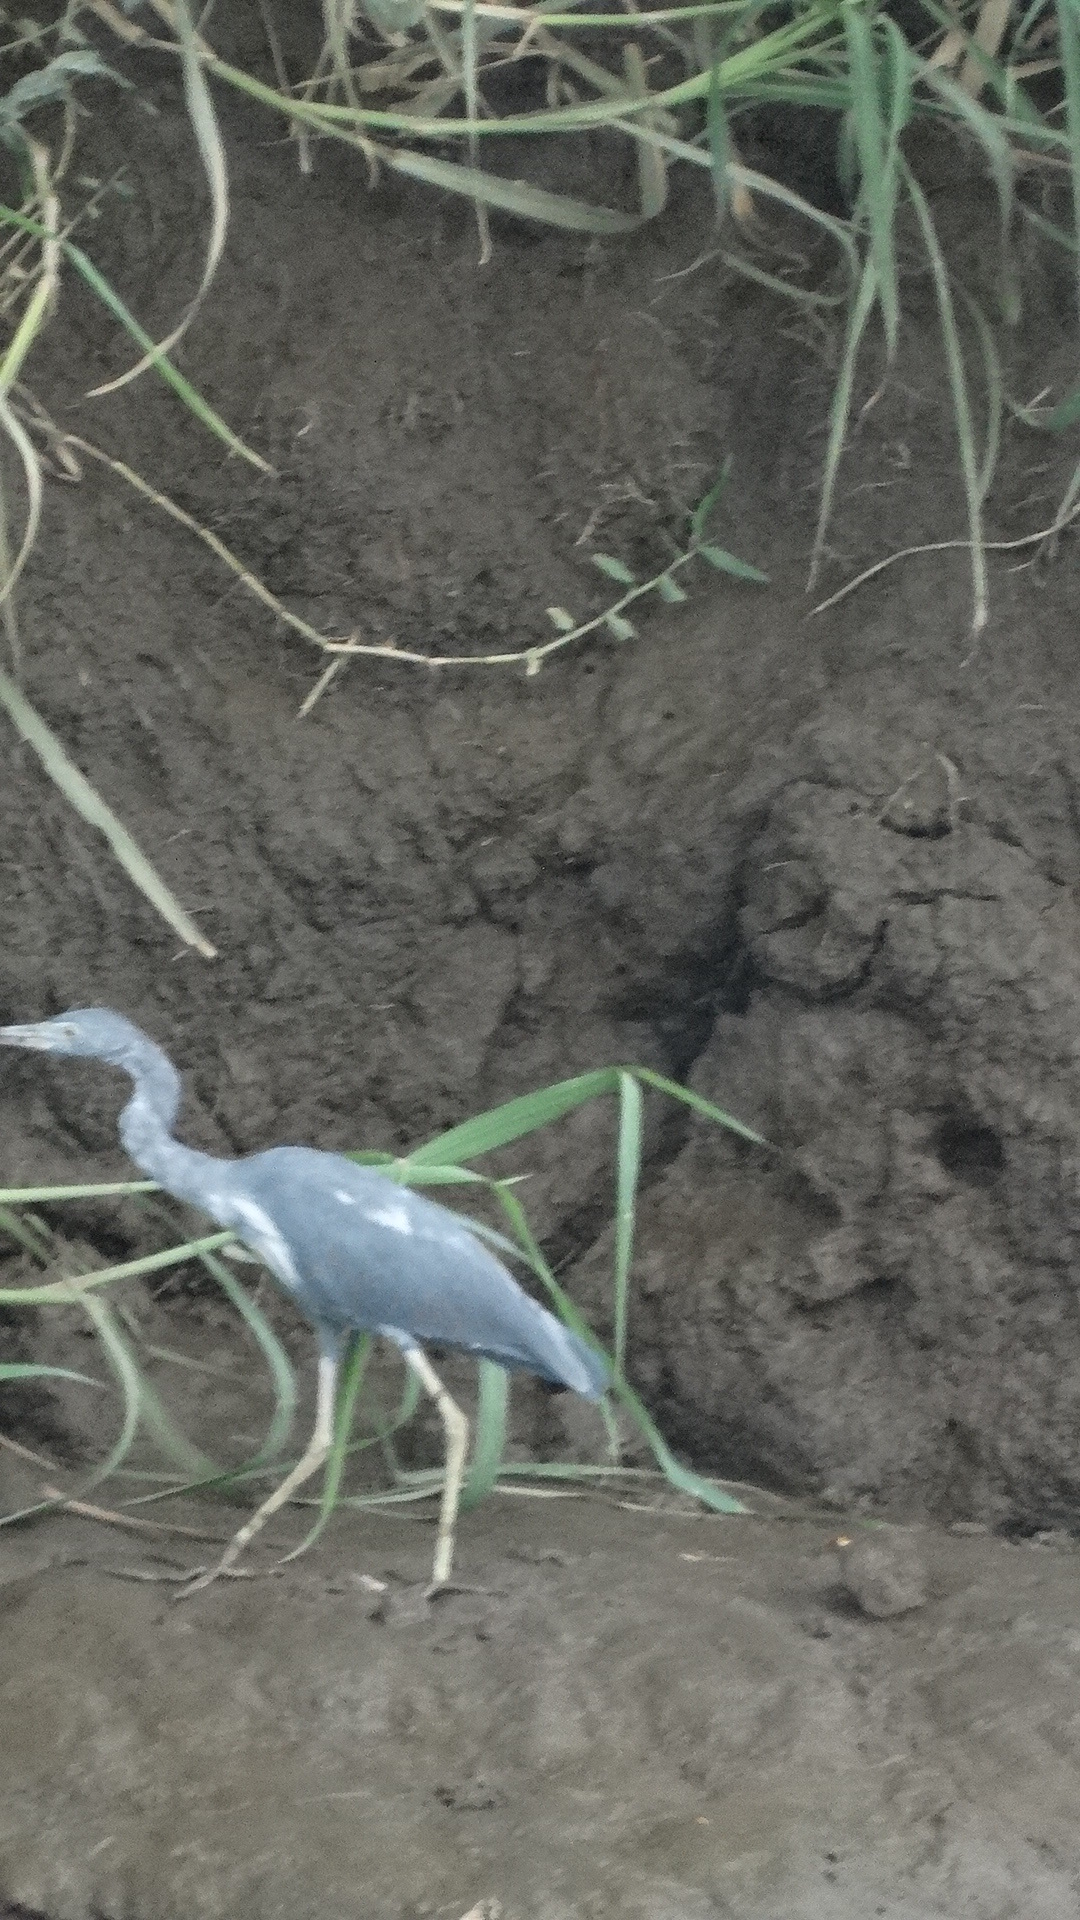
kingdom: Animalia
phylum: Chordata
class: Aves
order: Pelecaniformes
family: Ardeidae
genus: Egretta
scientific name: Egretta caerulea
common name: Little blue heron
